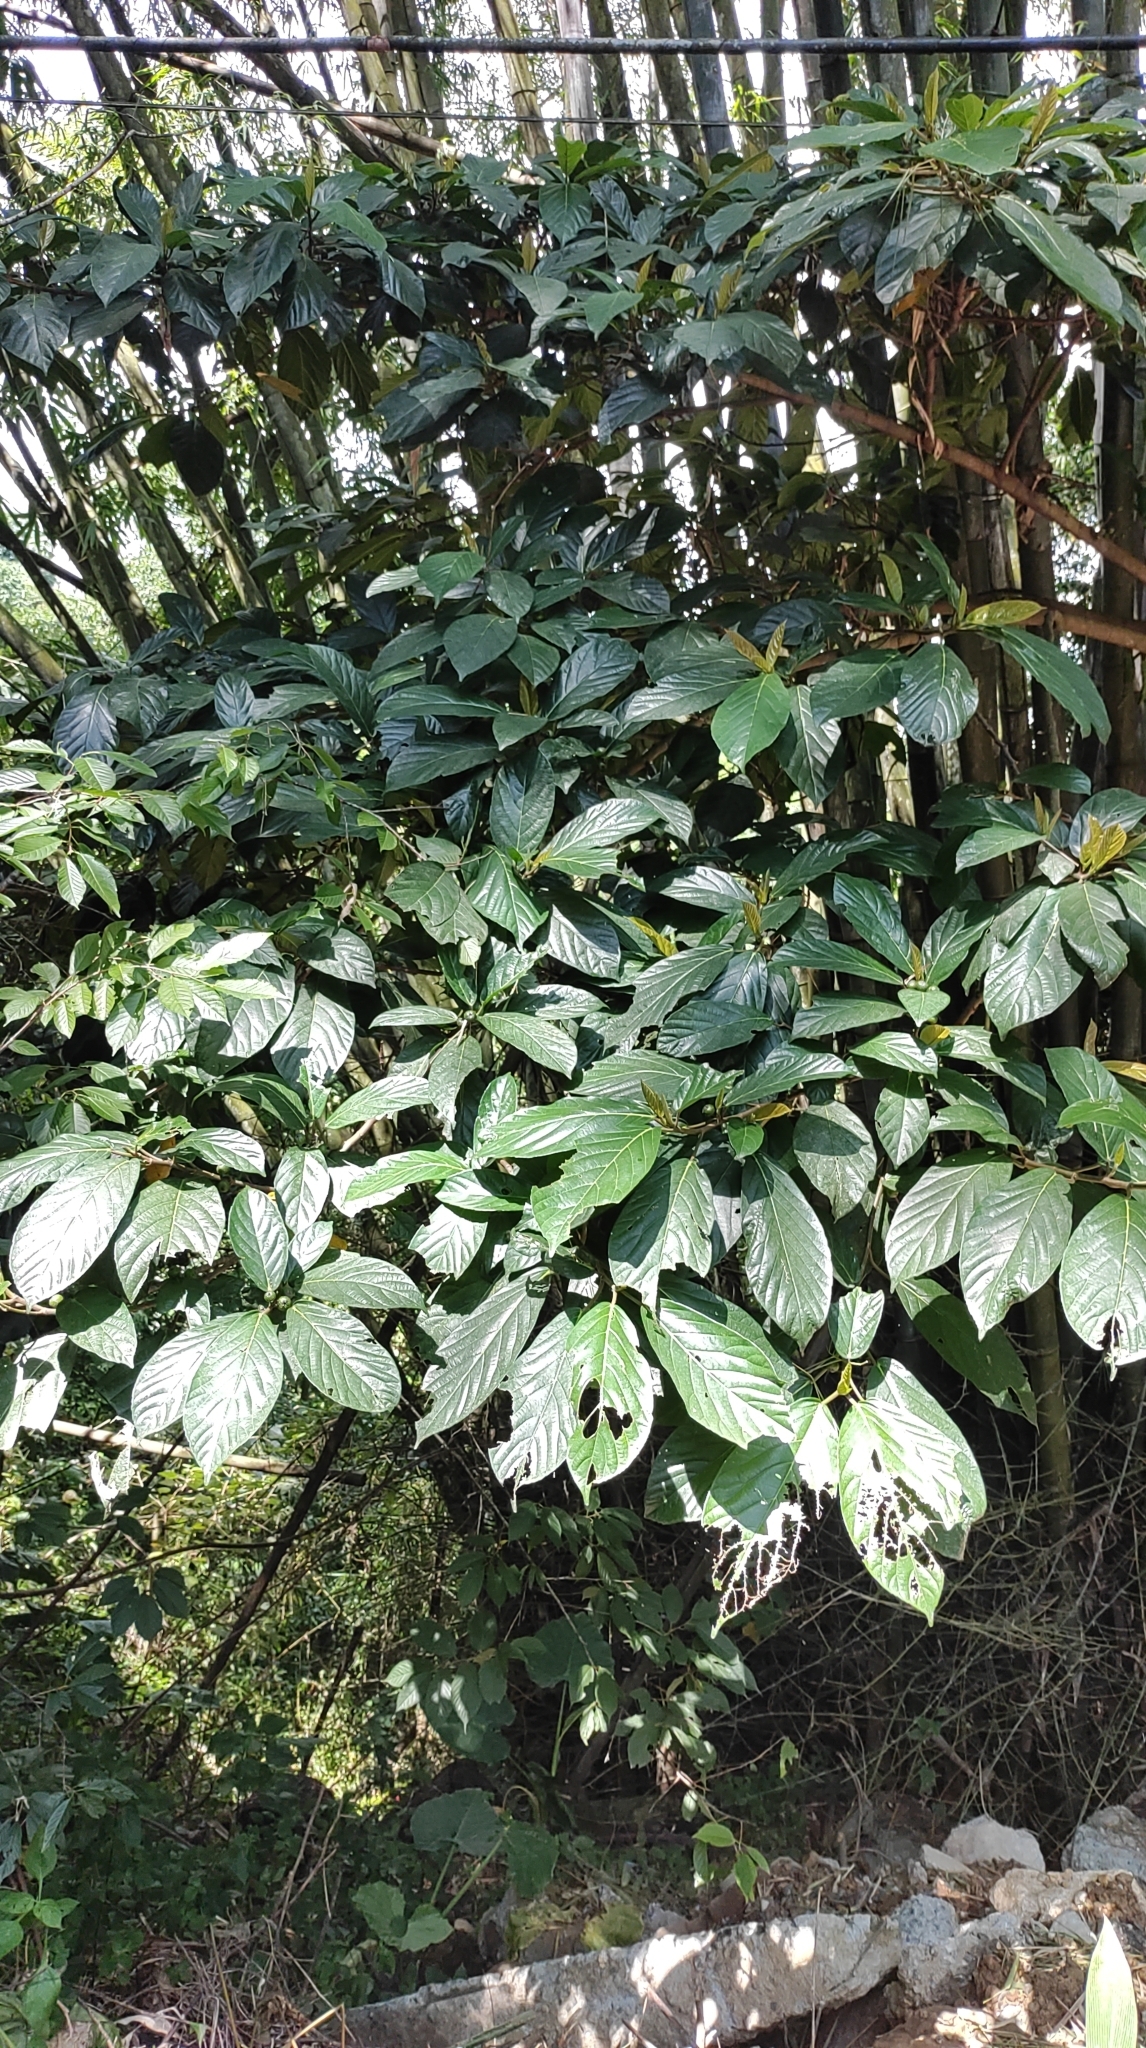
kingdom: Plantae
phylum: Tracheophyta
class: Magnoliopsida
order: Rosales
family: Moraceae
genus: Ficus
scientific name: Ficus benguetensis
